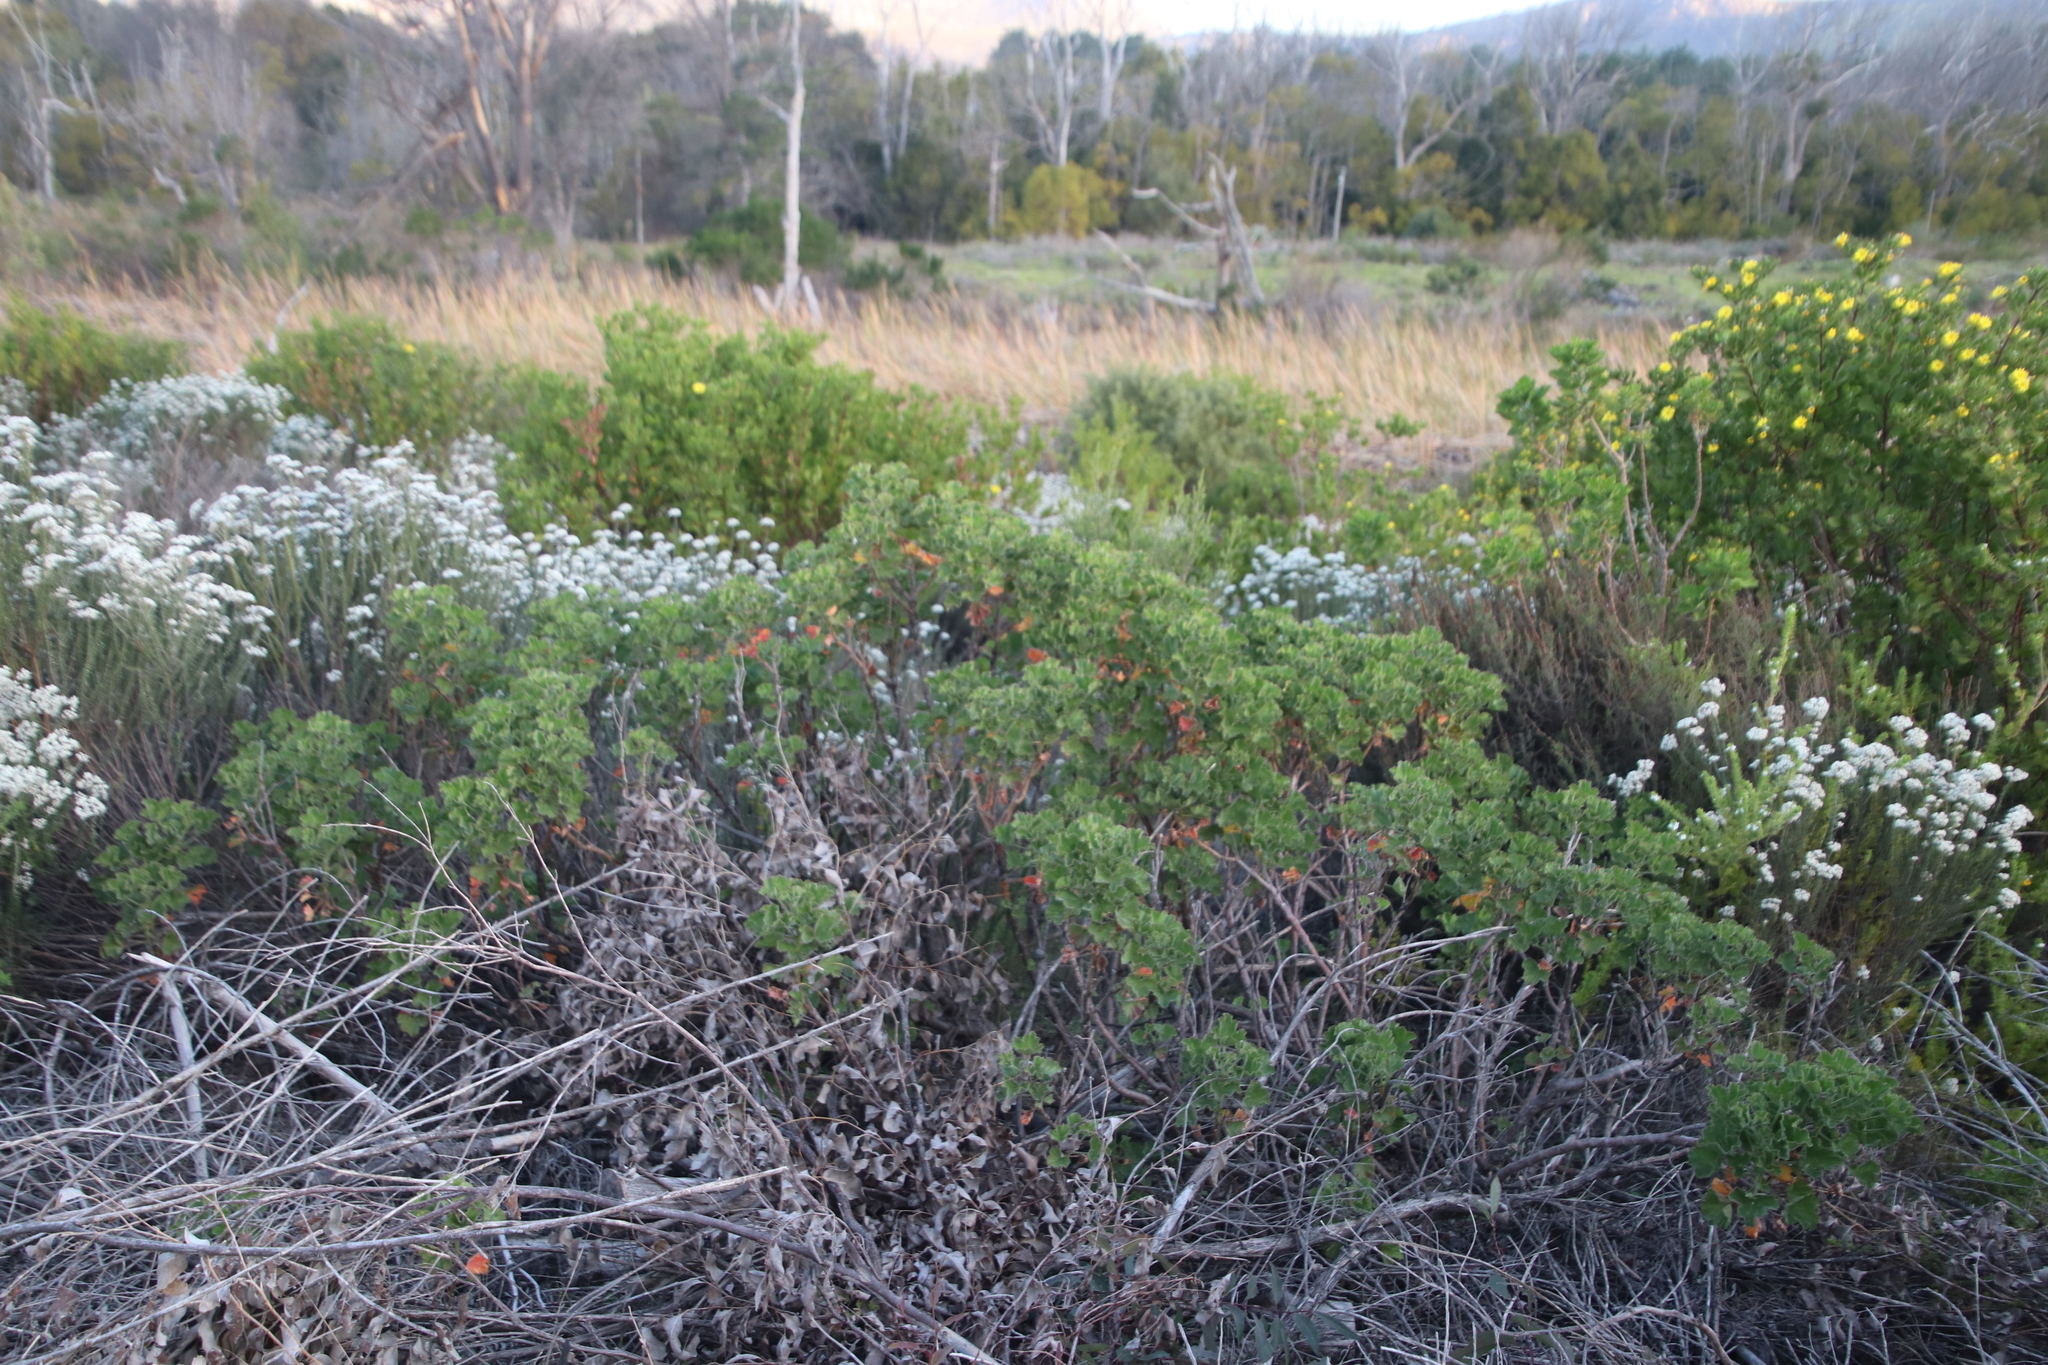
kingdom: Plantae
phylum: Tracheophyta
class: Magnoliopsida
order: Geraniales
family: Geraniaceae
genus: Pelargonium
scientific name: Pelargonium cucullatum
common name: Tree pelargonium
